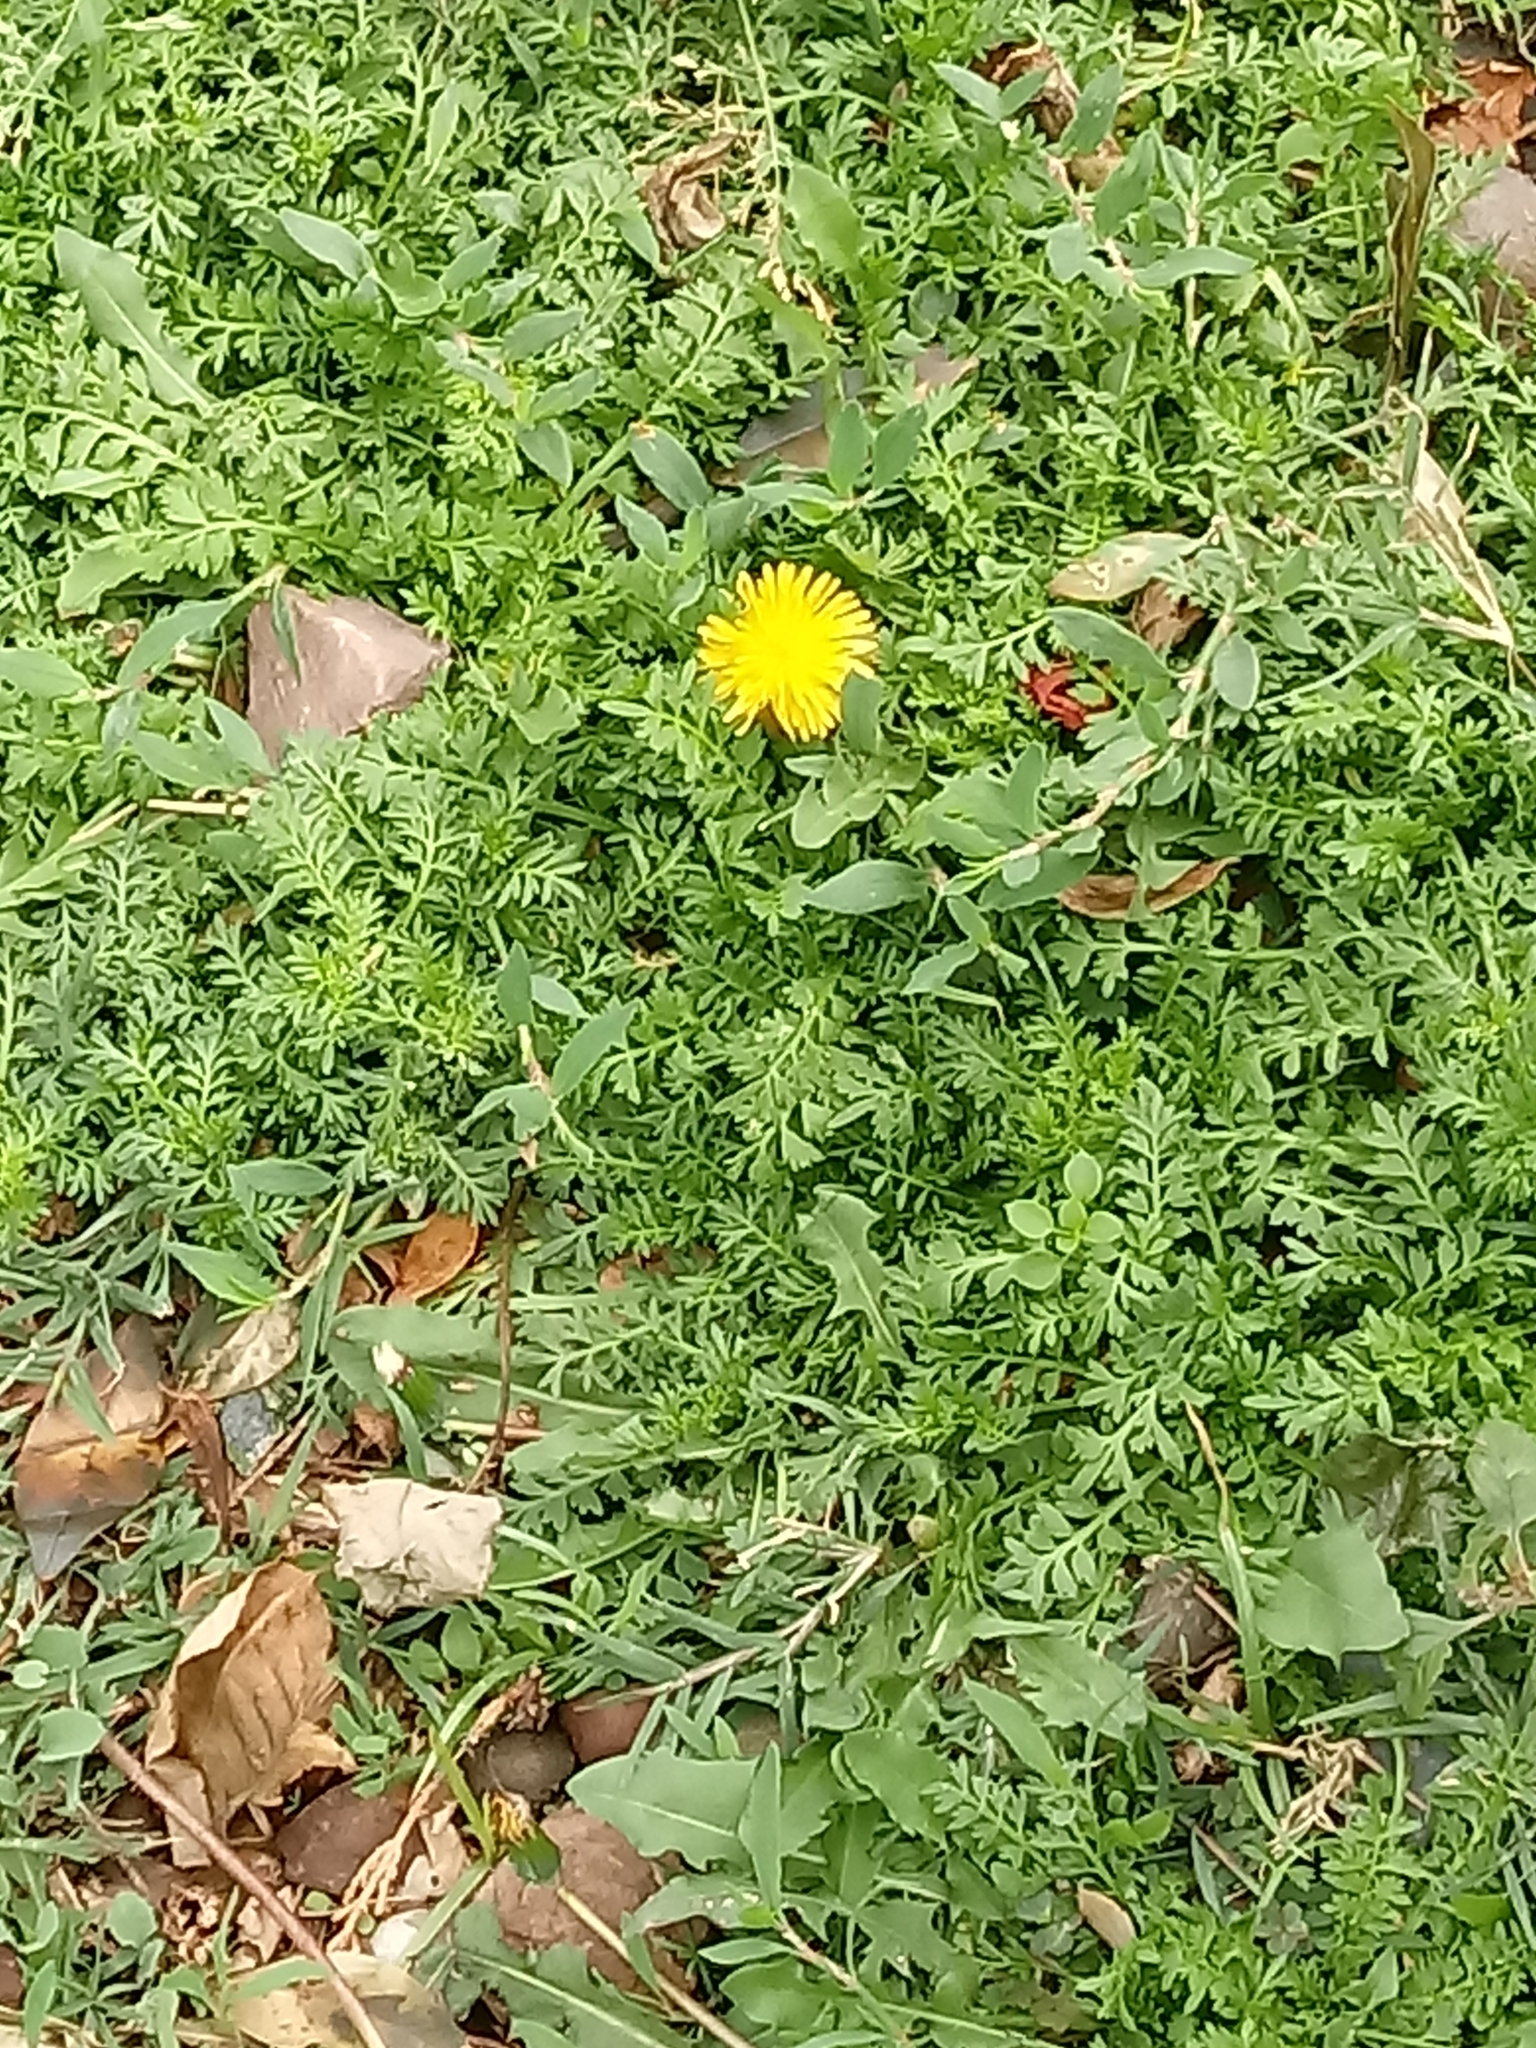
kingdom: Plantae
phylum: Tracheophyta
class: Magnoliopsida
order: Asterales
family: Asteraceae
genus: Taraxacum
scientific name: Taraxacum officinale
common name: Common dandelion
